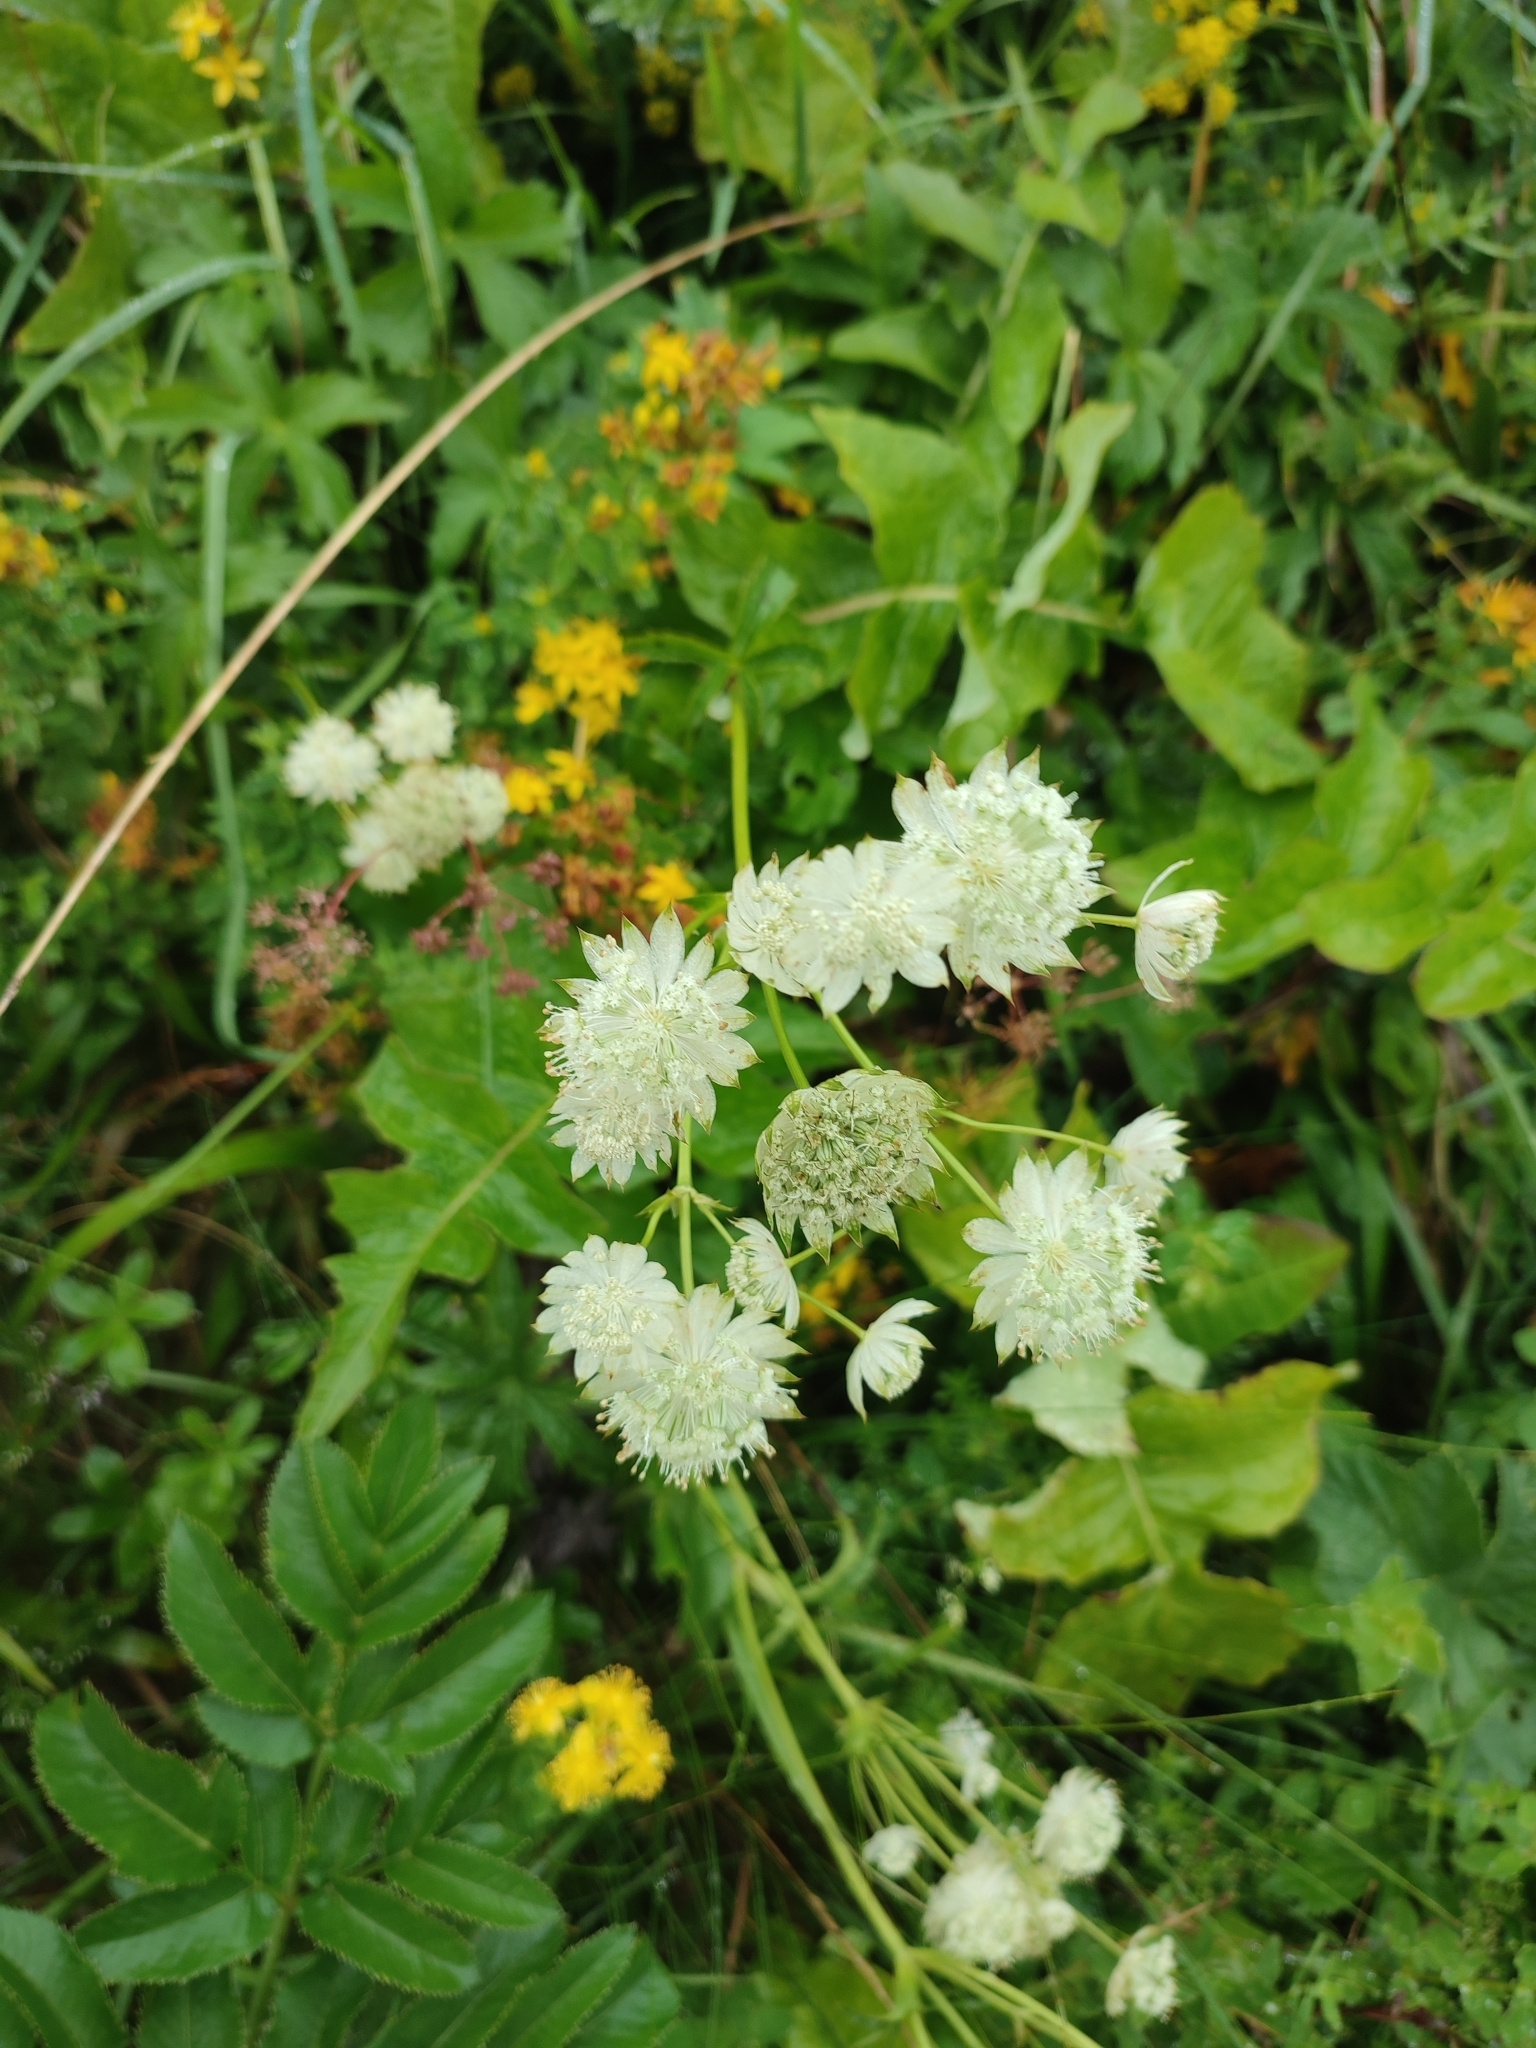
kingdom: Plantae
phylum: Tracheophyta
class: Magnoliopsida
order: Apiales
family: Apiaceae
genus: Astrantia
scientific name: Astrantia major
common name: Greater masterwort
